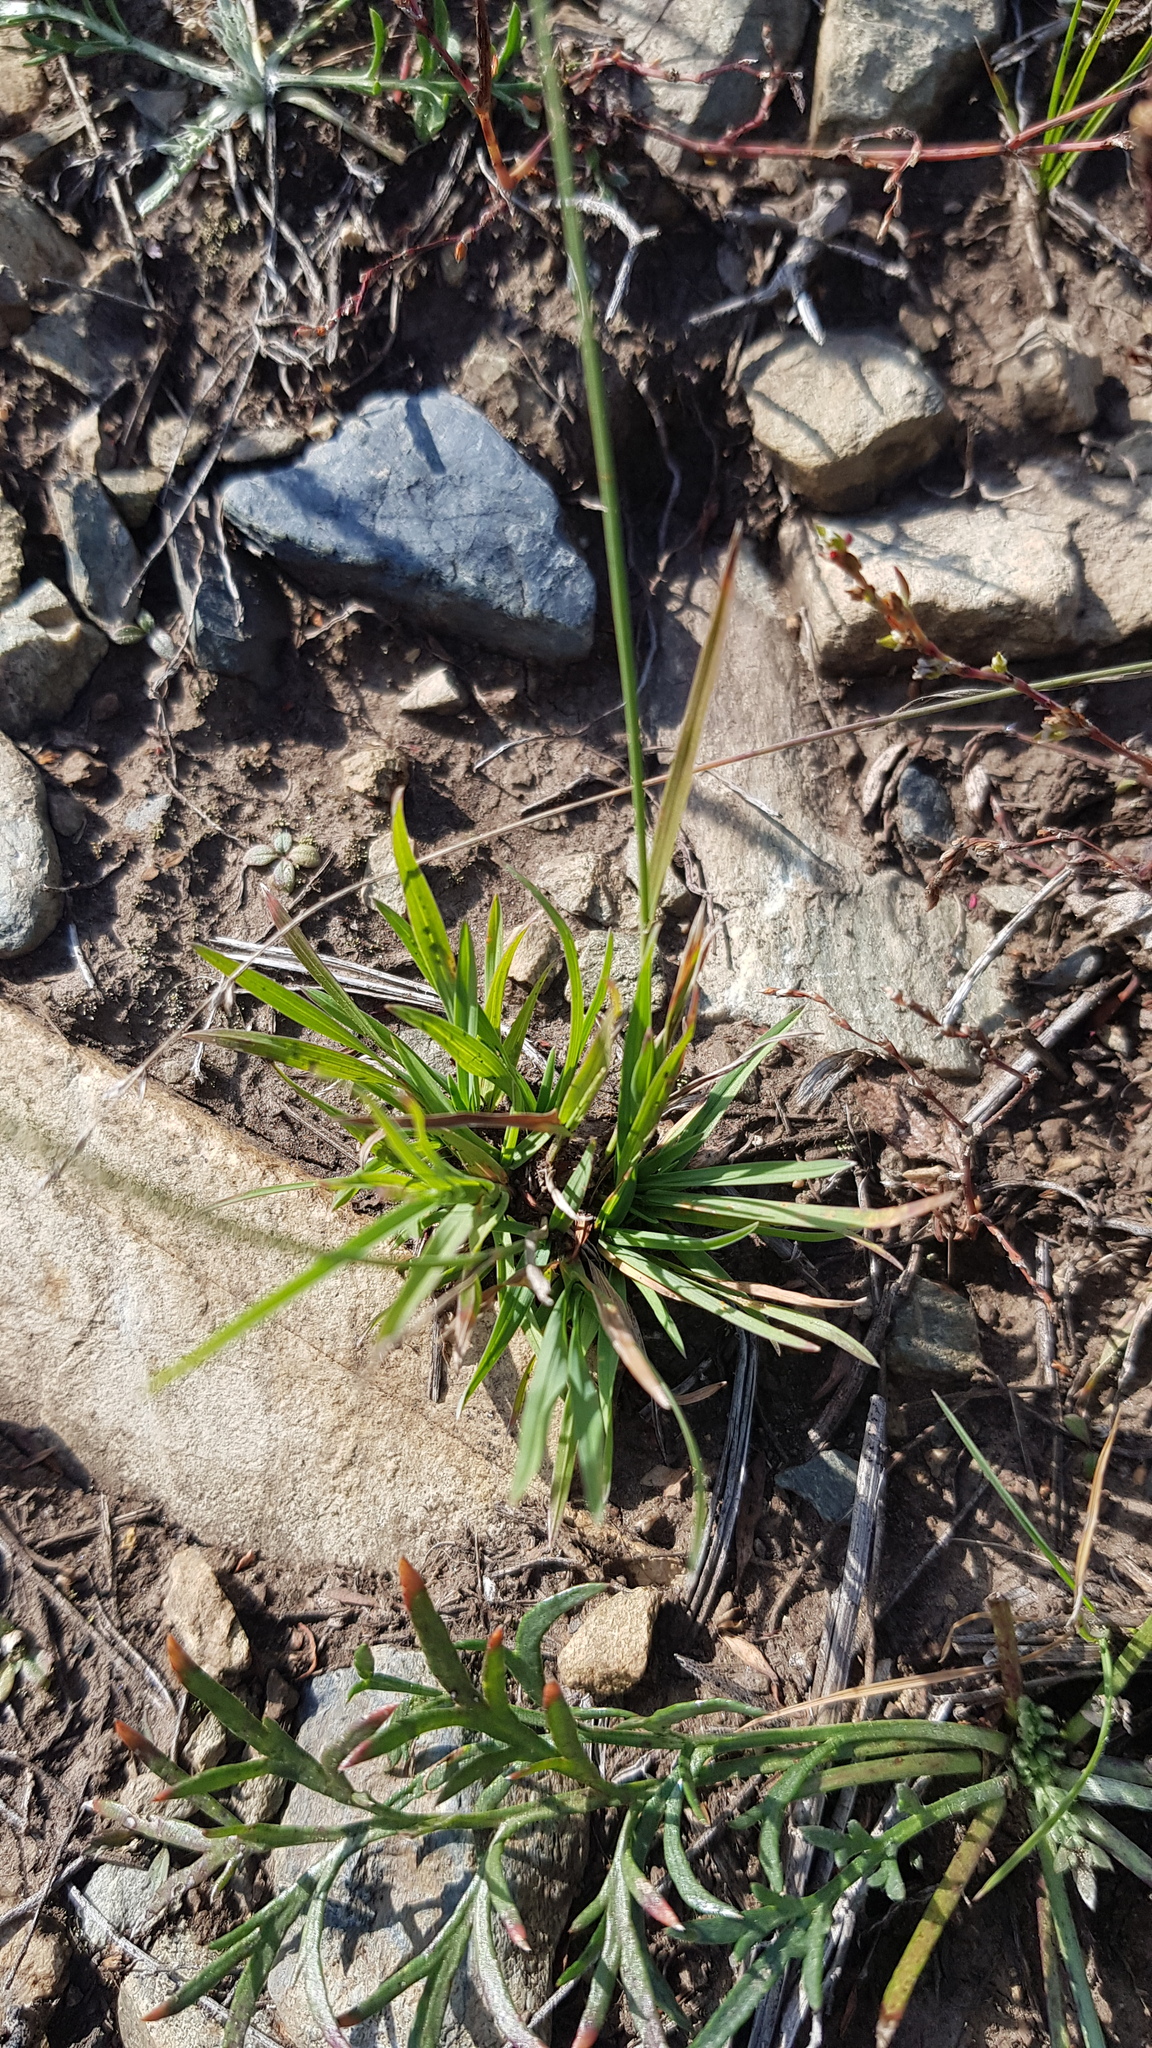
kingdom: Plantae
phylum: Tracheophyta
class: Liliopsida
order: Poales
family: Poaceae
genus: Cleistogenes
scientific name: Cleistogenes squarrosa
